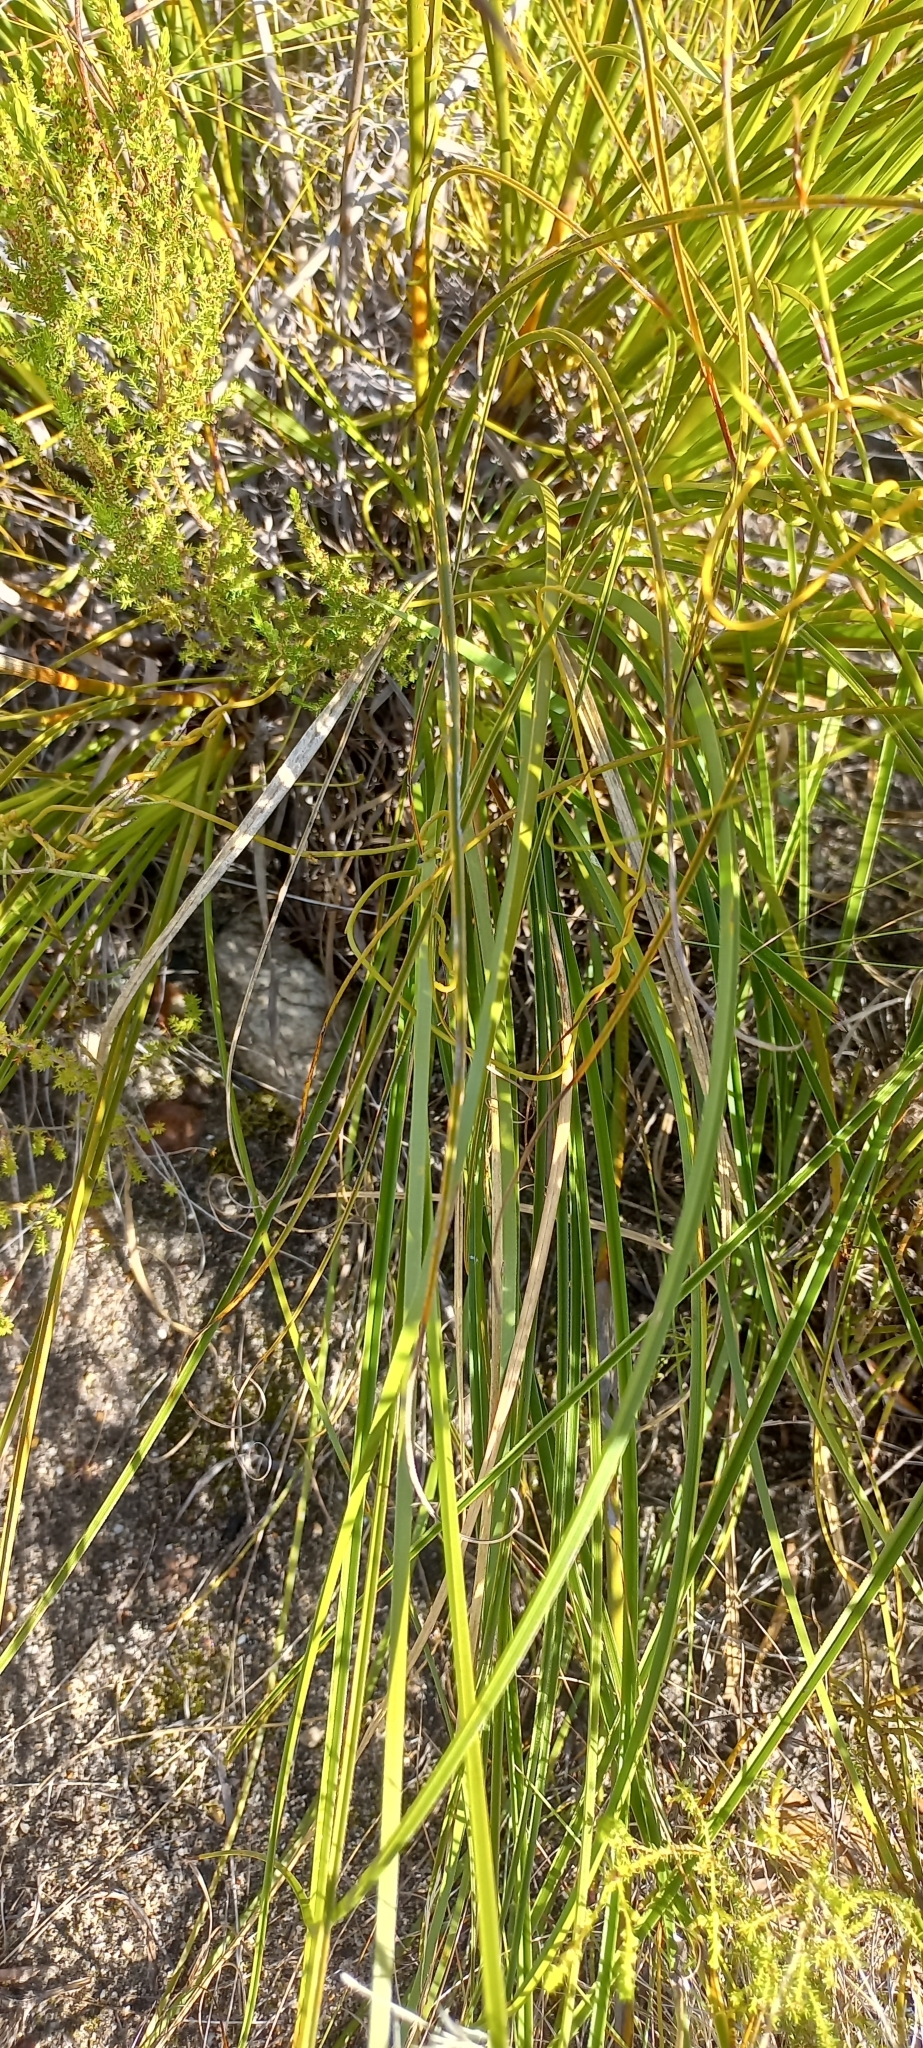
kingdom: Plantae
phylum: Tracheophyta
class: Liliopsida
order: Poales
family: Cyperaceae
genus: Tetraria
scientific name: Tetraria bromoides
